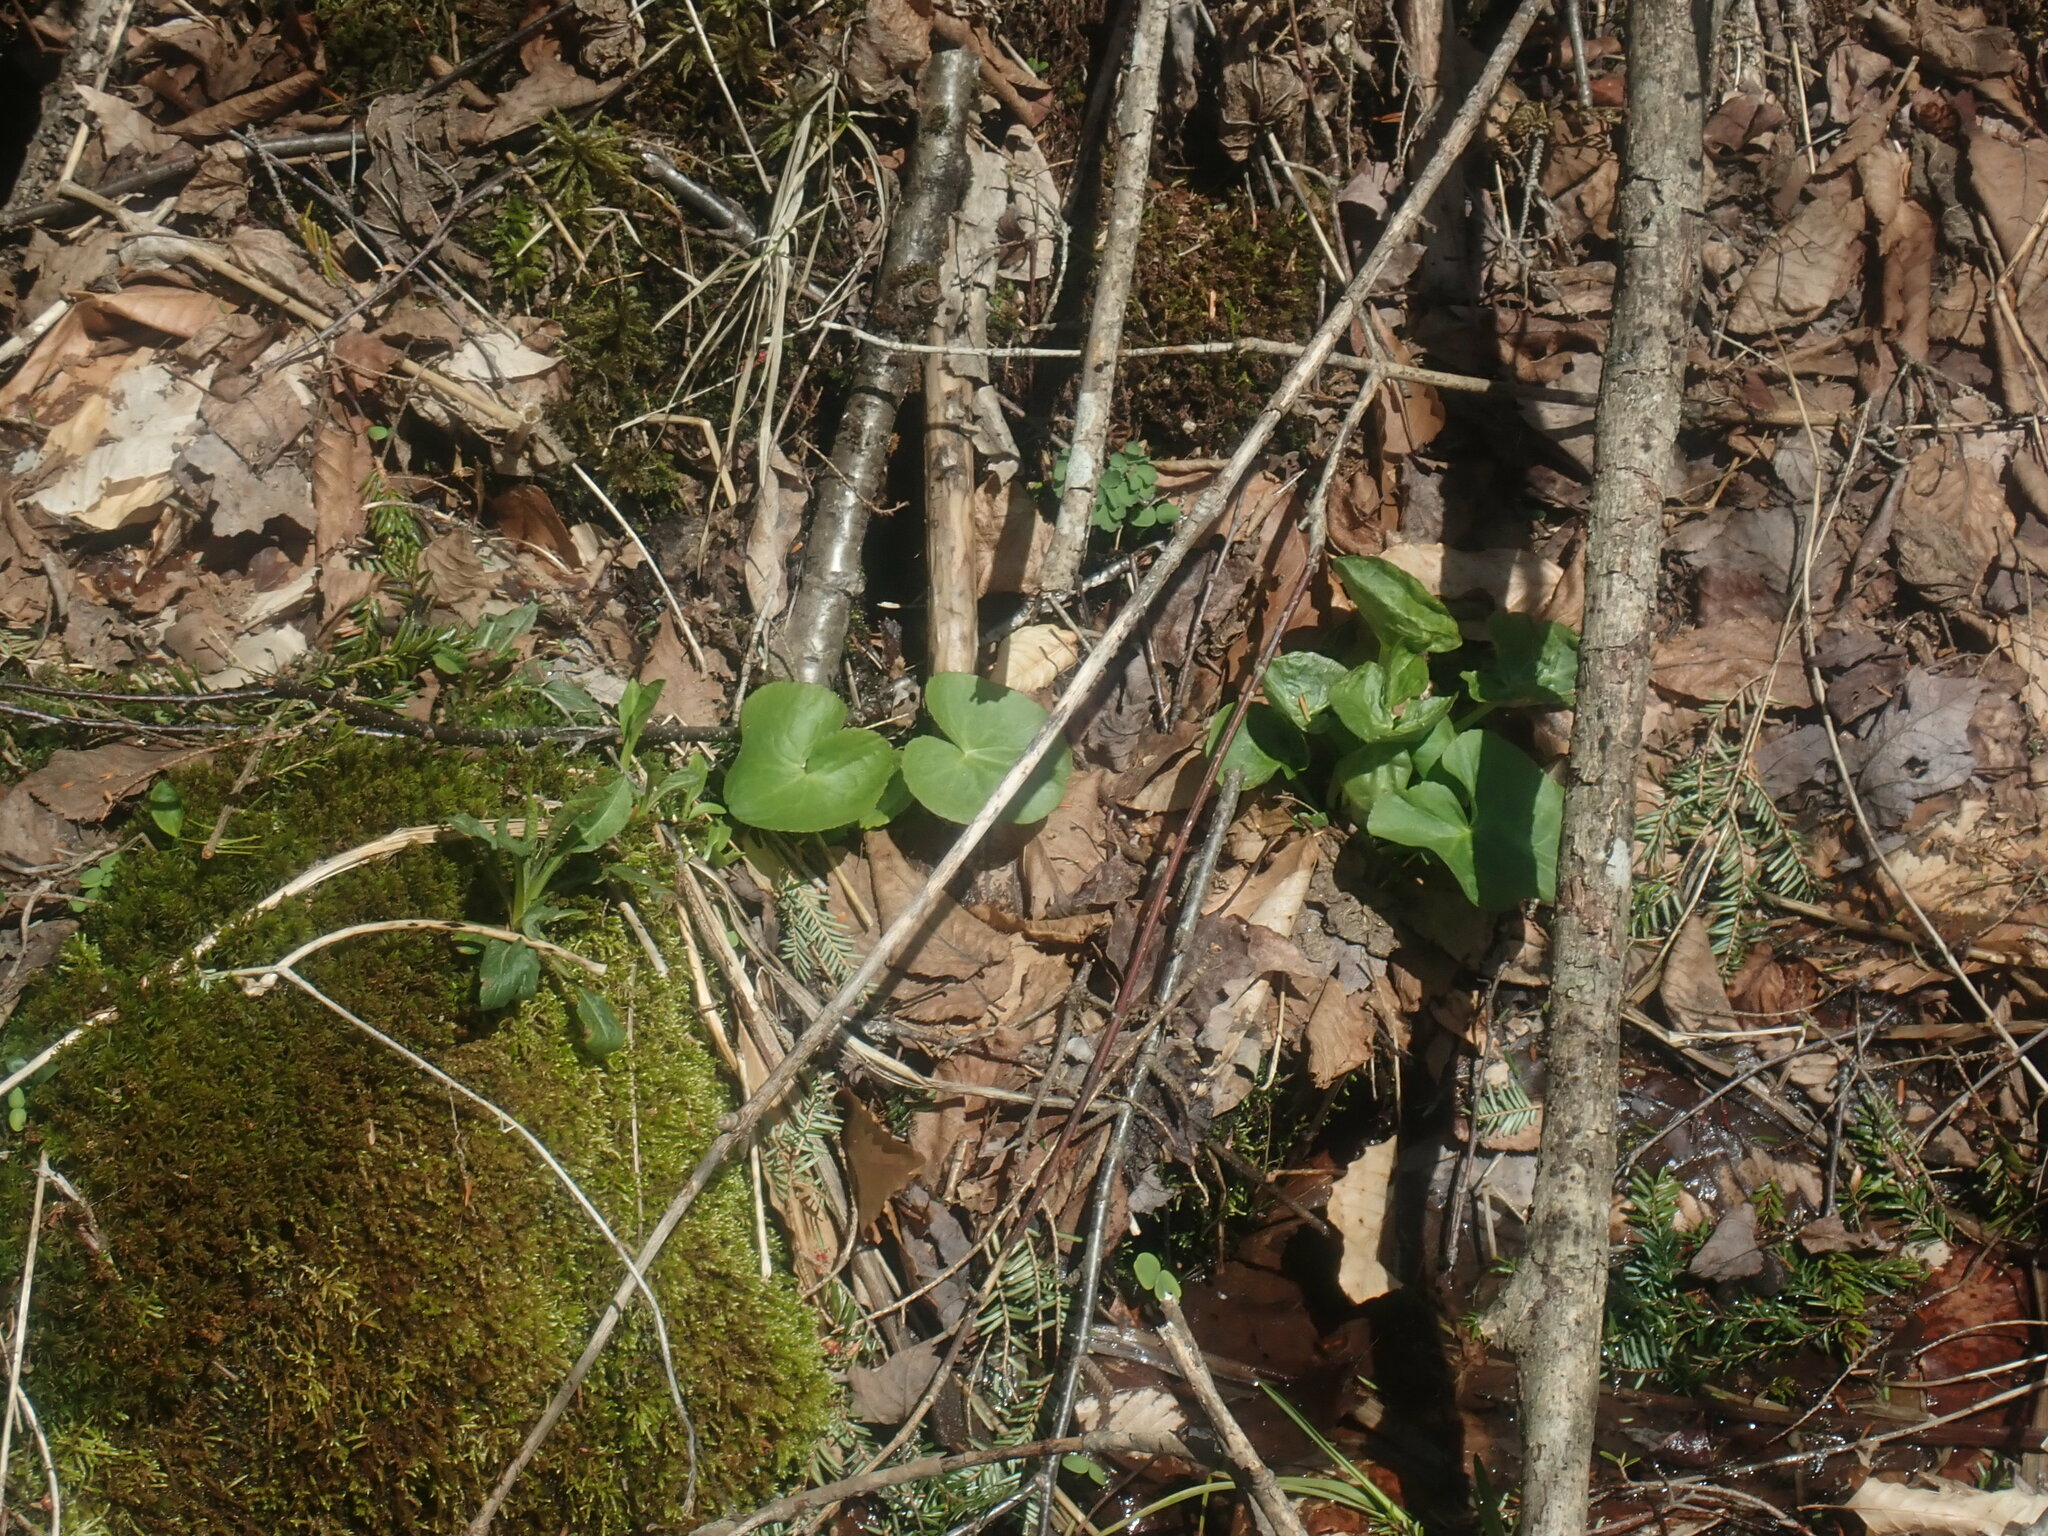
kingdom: Plantae
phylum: Tracheophyta
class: Magnoliopsida
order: Ranunculales
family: Ranunculaceae
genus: Caltha
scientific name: Caltha palustris
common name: Marsh marigold
